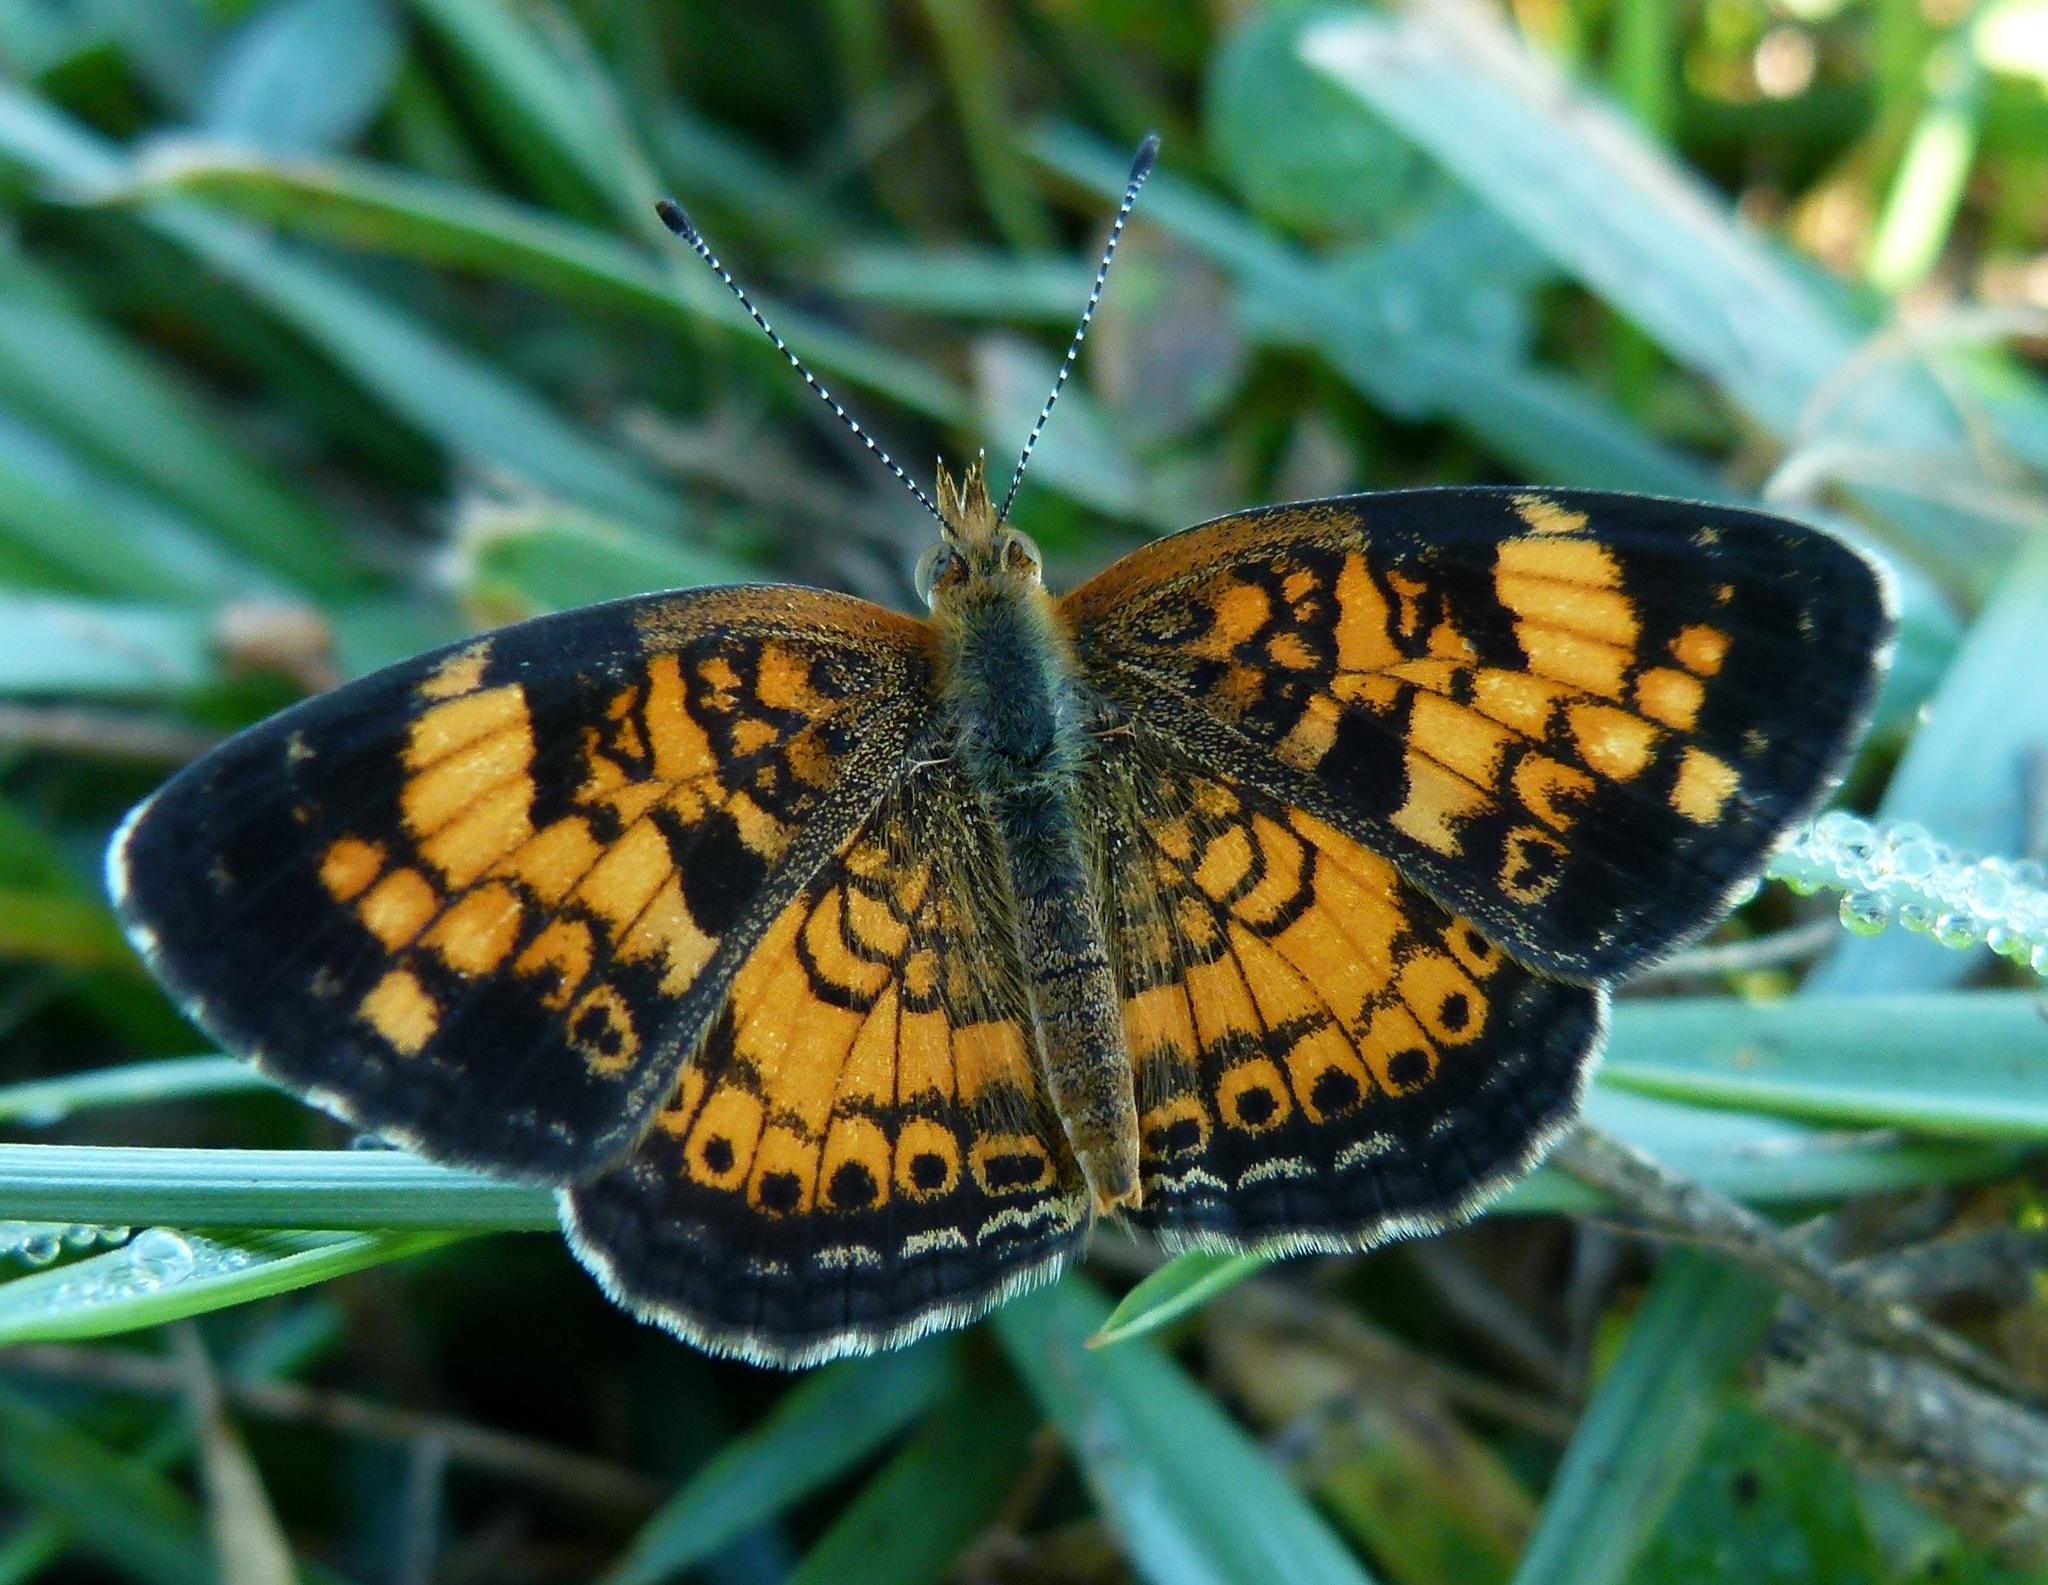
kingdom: Animalia
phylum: Arthropoda
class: Insecta
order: Lepidoptera
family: Nymphalidae
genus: Phyciodes
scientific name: Phyciodes tharos
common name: Pearl crescent
